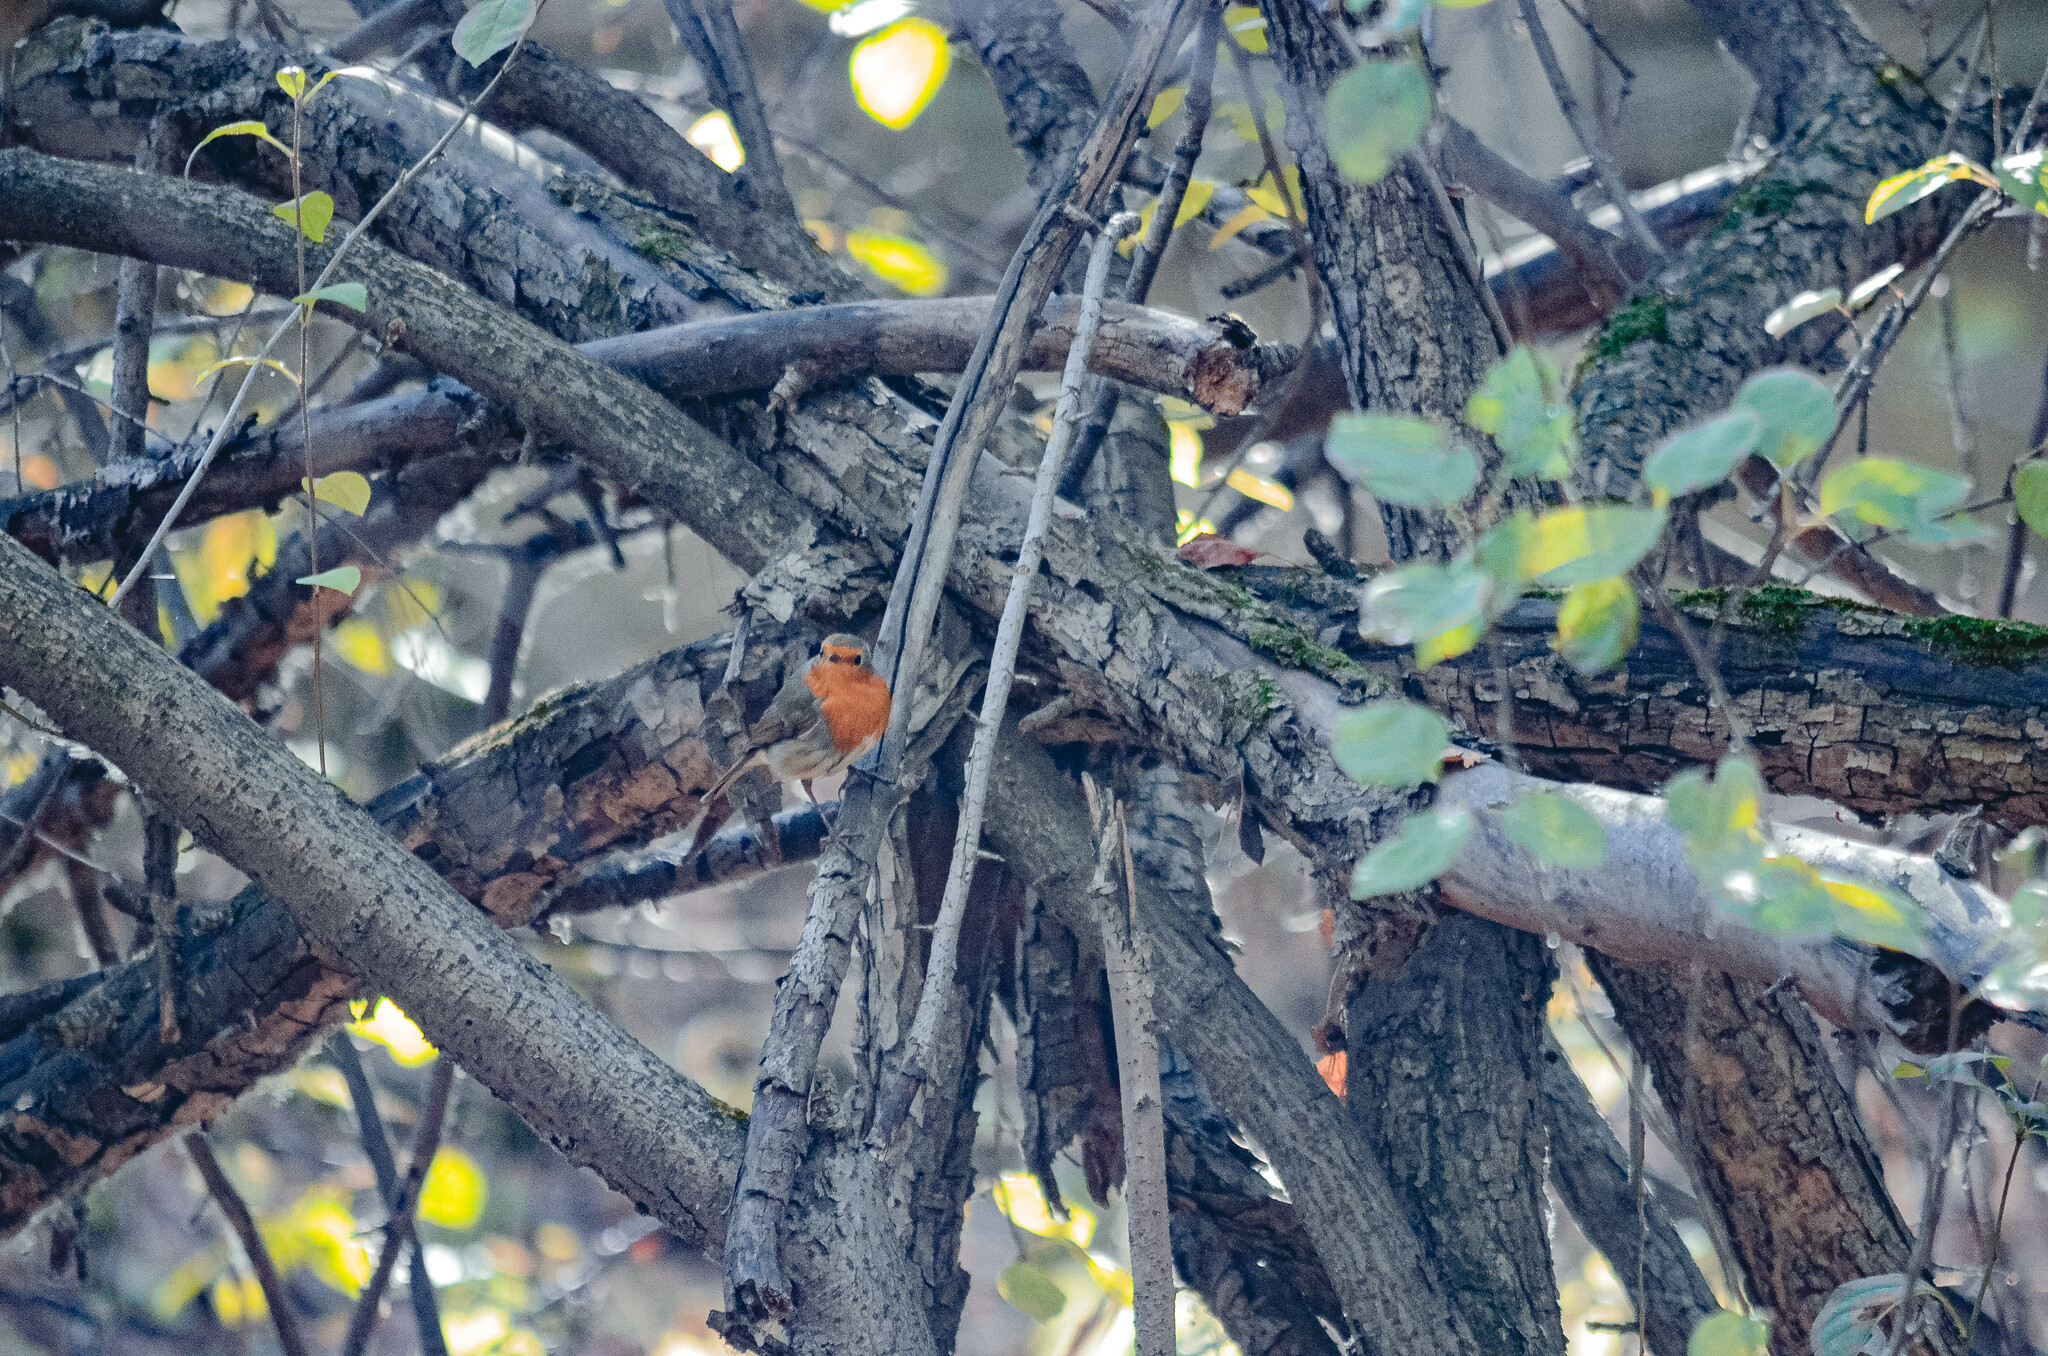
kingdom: Animalia
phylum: Chordata
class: Aves
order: Passeriformes
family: Muscicapidae
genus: Erithacus
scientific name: Erithacus rubecula
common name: European robin
